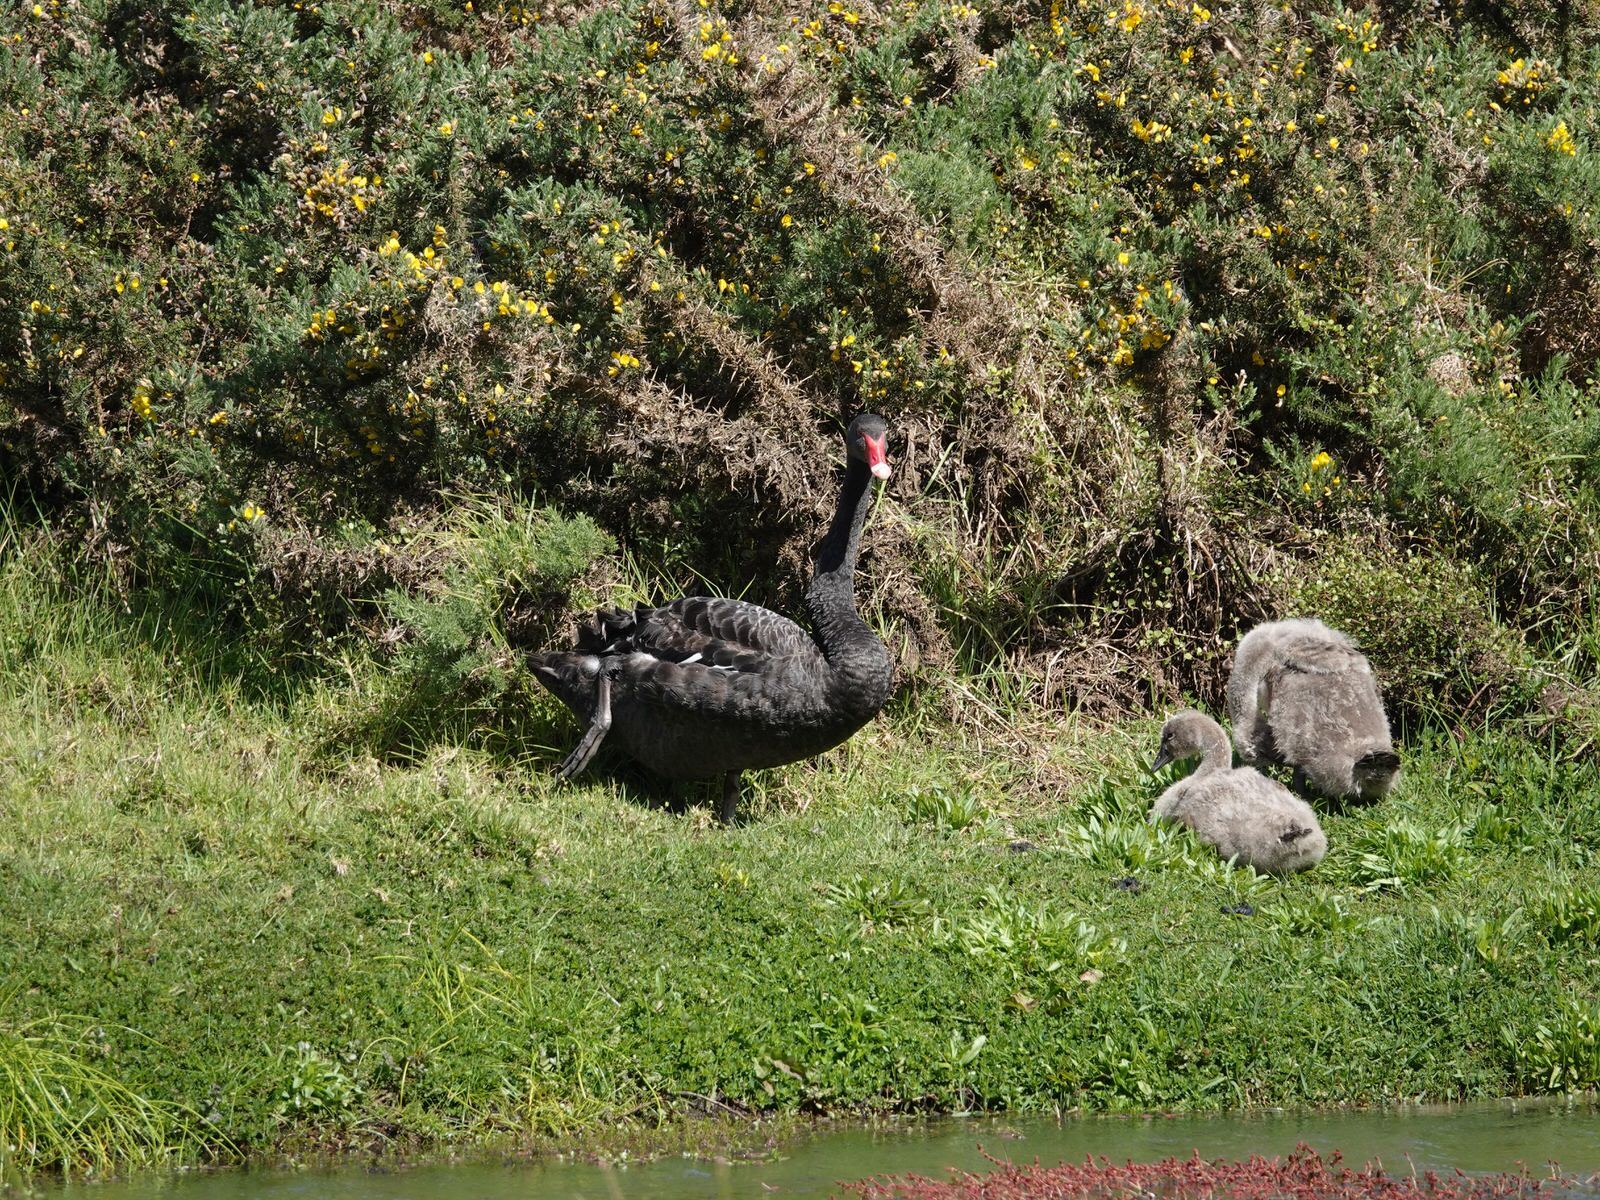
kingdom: Animalia
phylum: Chordata
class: Aves
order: Anseriformes
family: Anatidae
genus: Cygnus
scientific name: Cygnus atratus
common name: Black swan
